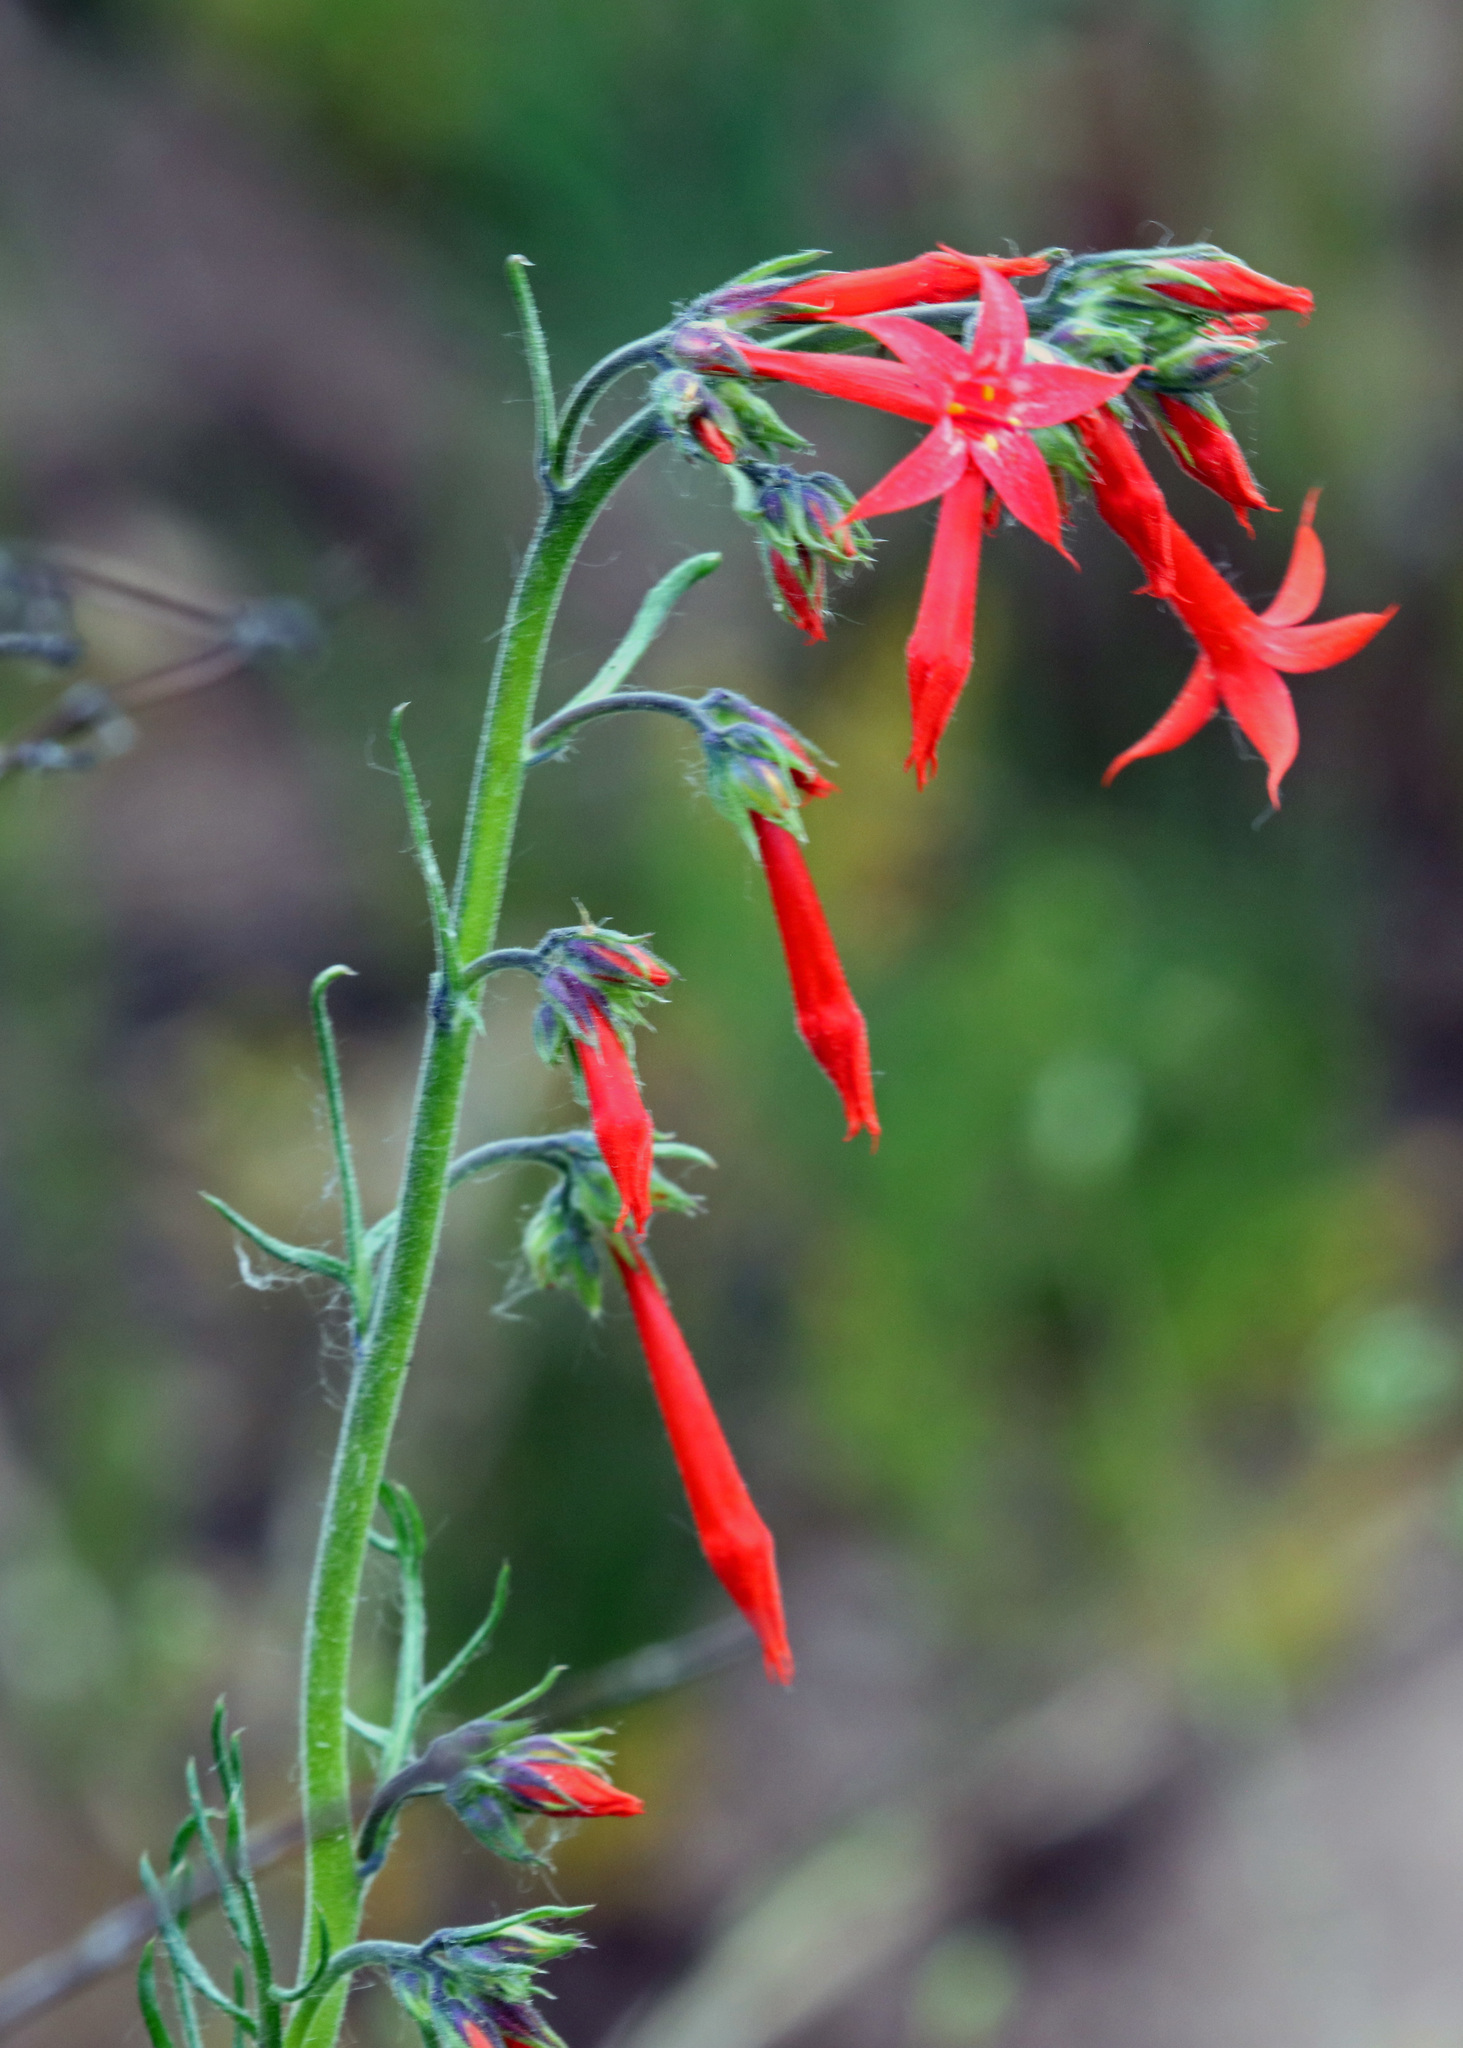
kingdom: Plantae
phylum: Tracheophyta
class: Magnoliopsida
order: Ericales
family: Polemoniaceae
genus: Ipomopsis
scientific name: Ipomopsis aggregata
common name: Scarlet gilia
